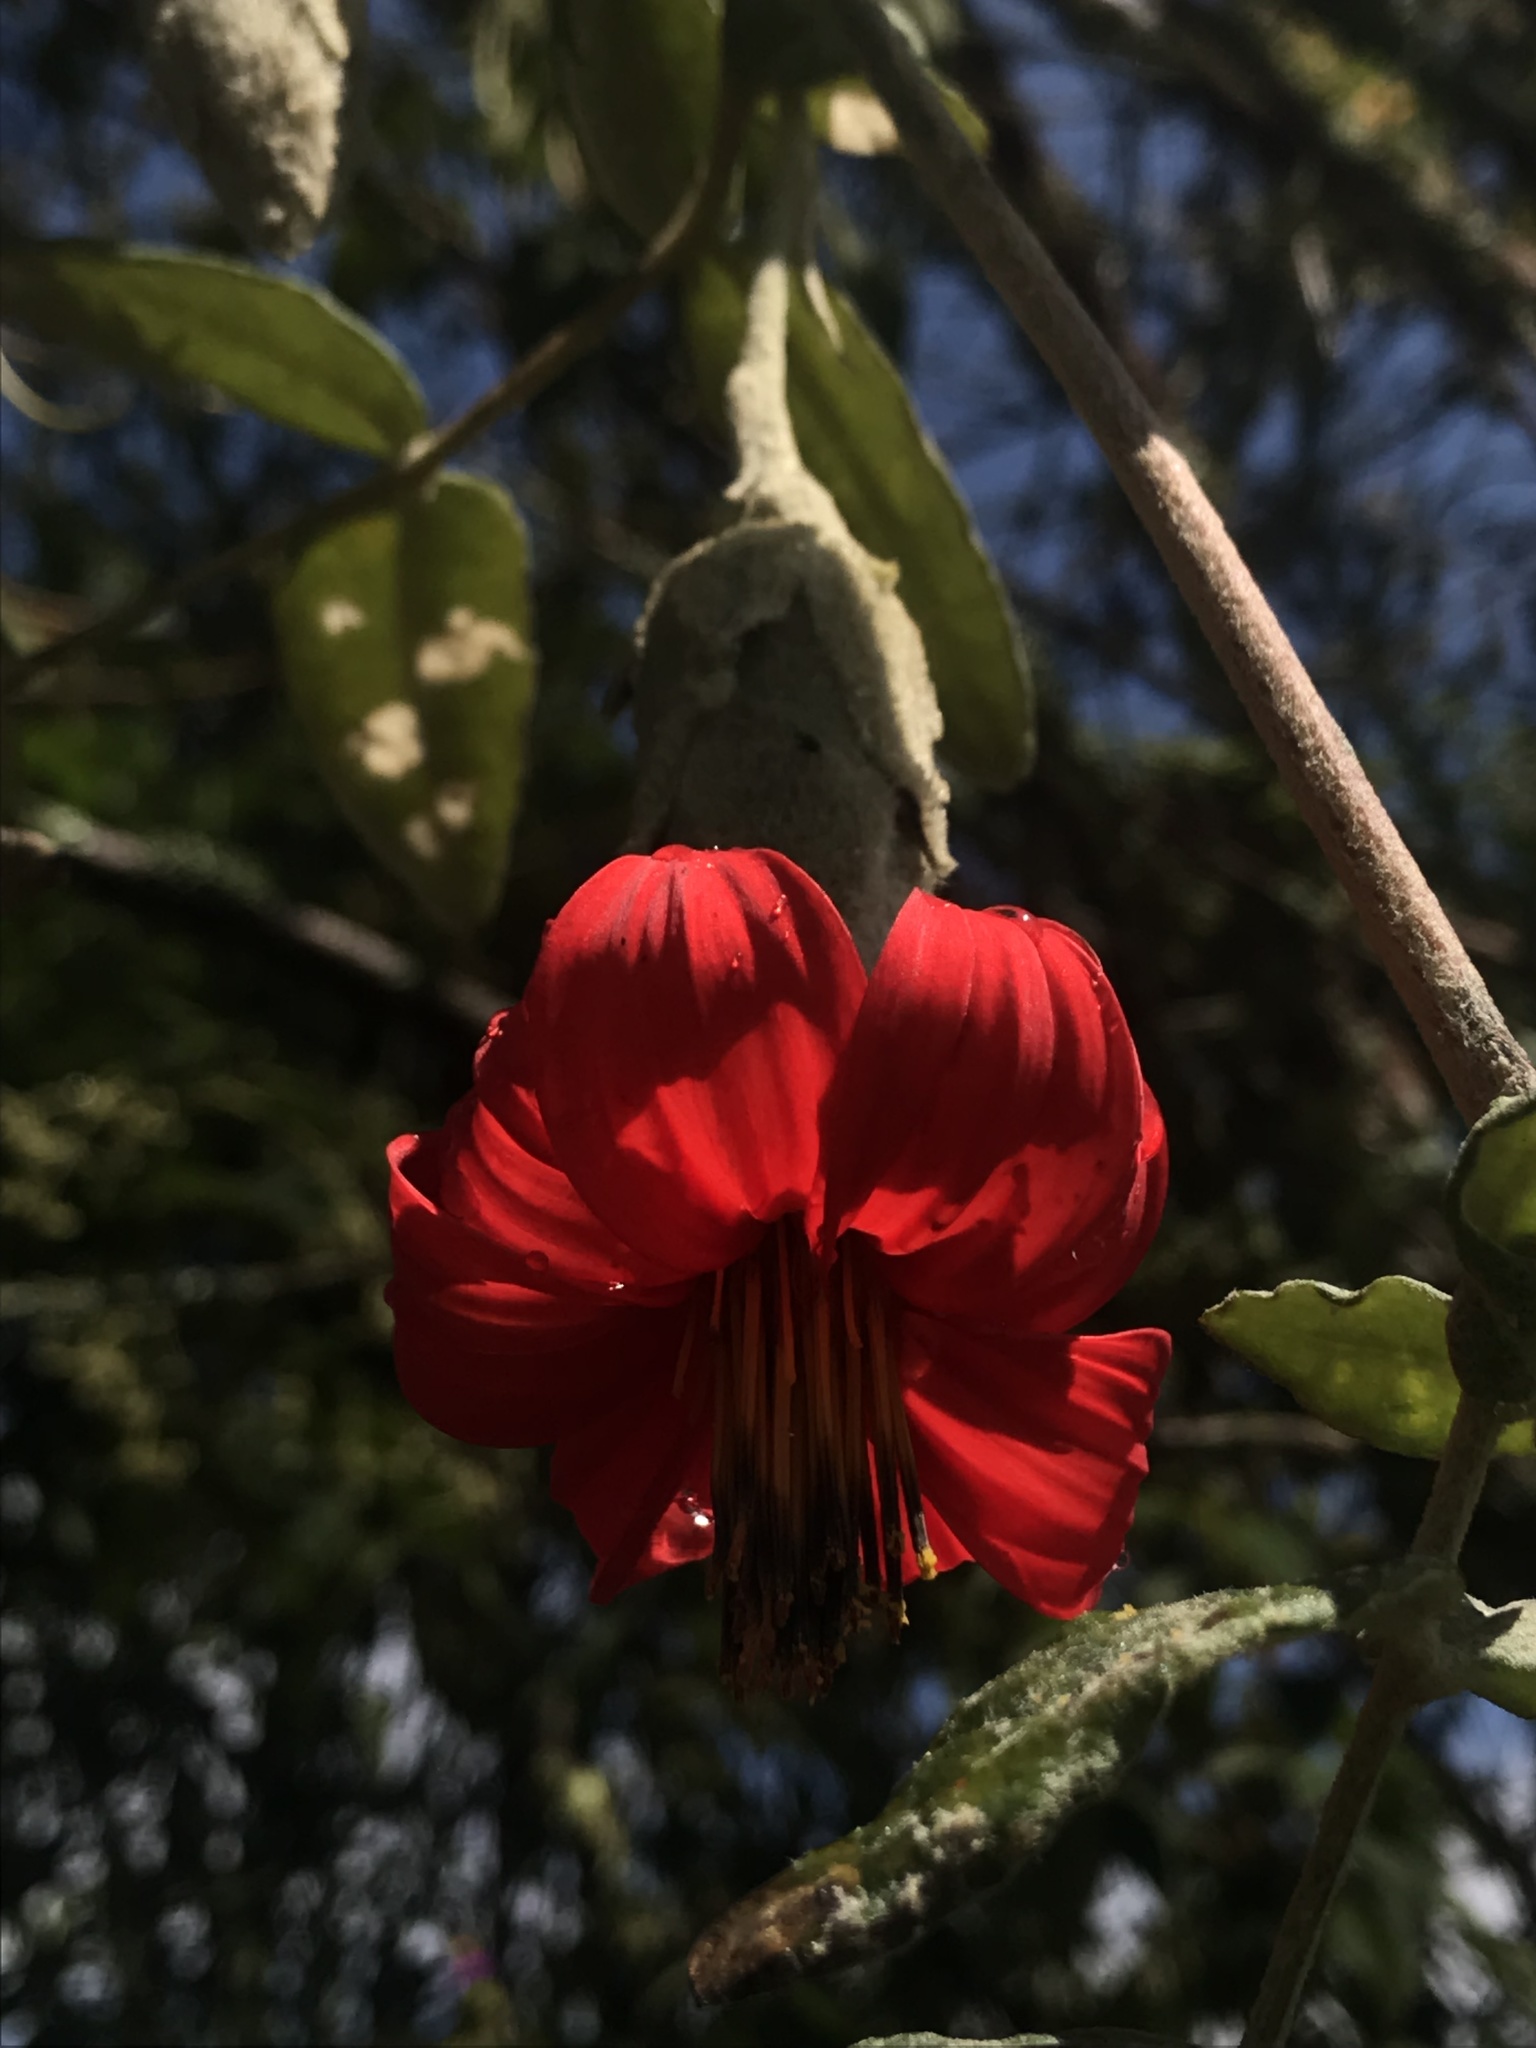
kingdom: Plantae
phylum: Tracheophyta
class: Magnoliopsida
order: Asterales
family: Asteraceae
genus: Mutisia
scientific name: Mutisia clematis
